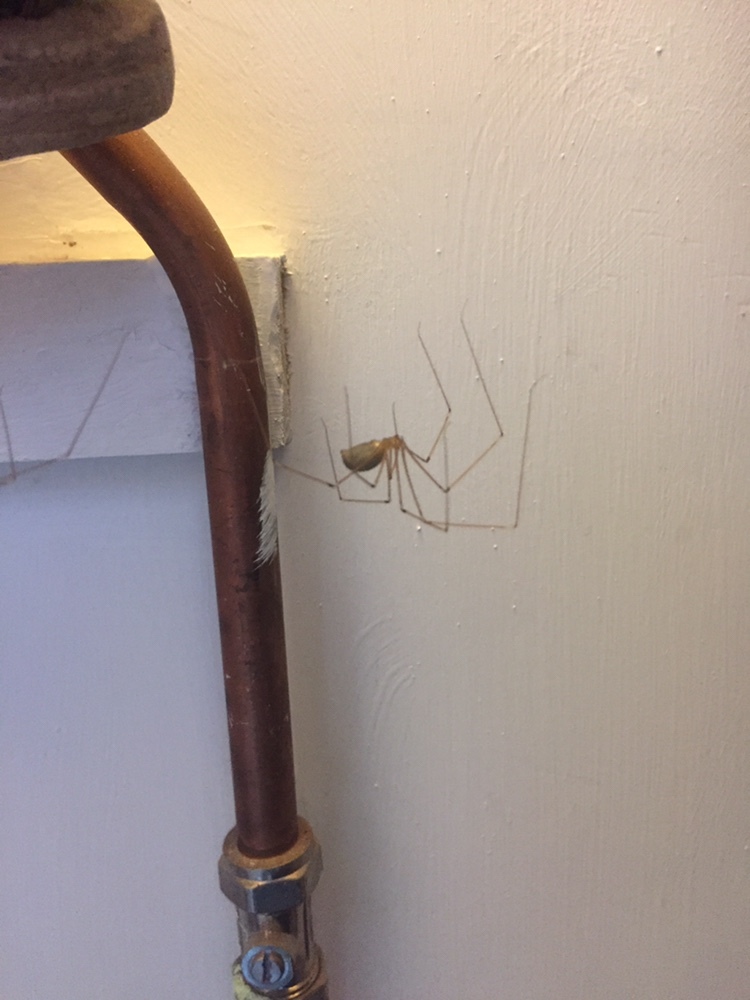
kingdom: Animalia
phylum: Arthropoda
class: Arachnida
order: Araneae
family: Pholcidae
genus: Pholcus
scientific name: Pholcus phalangioides
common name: Longbodied cellar spider
